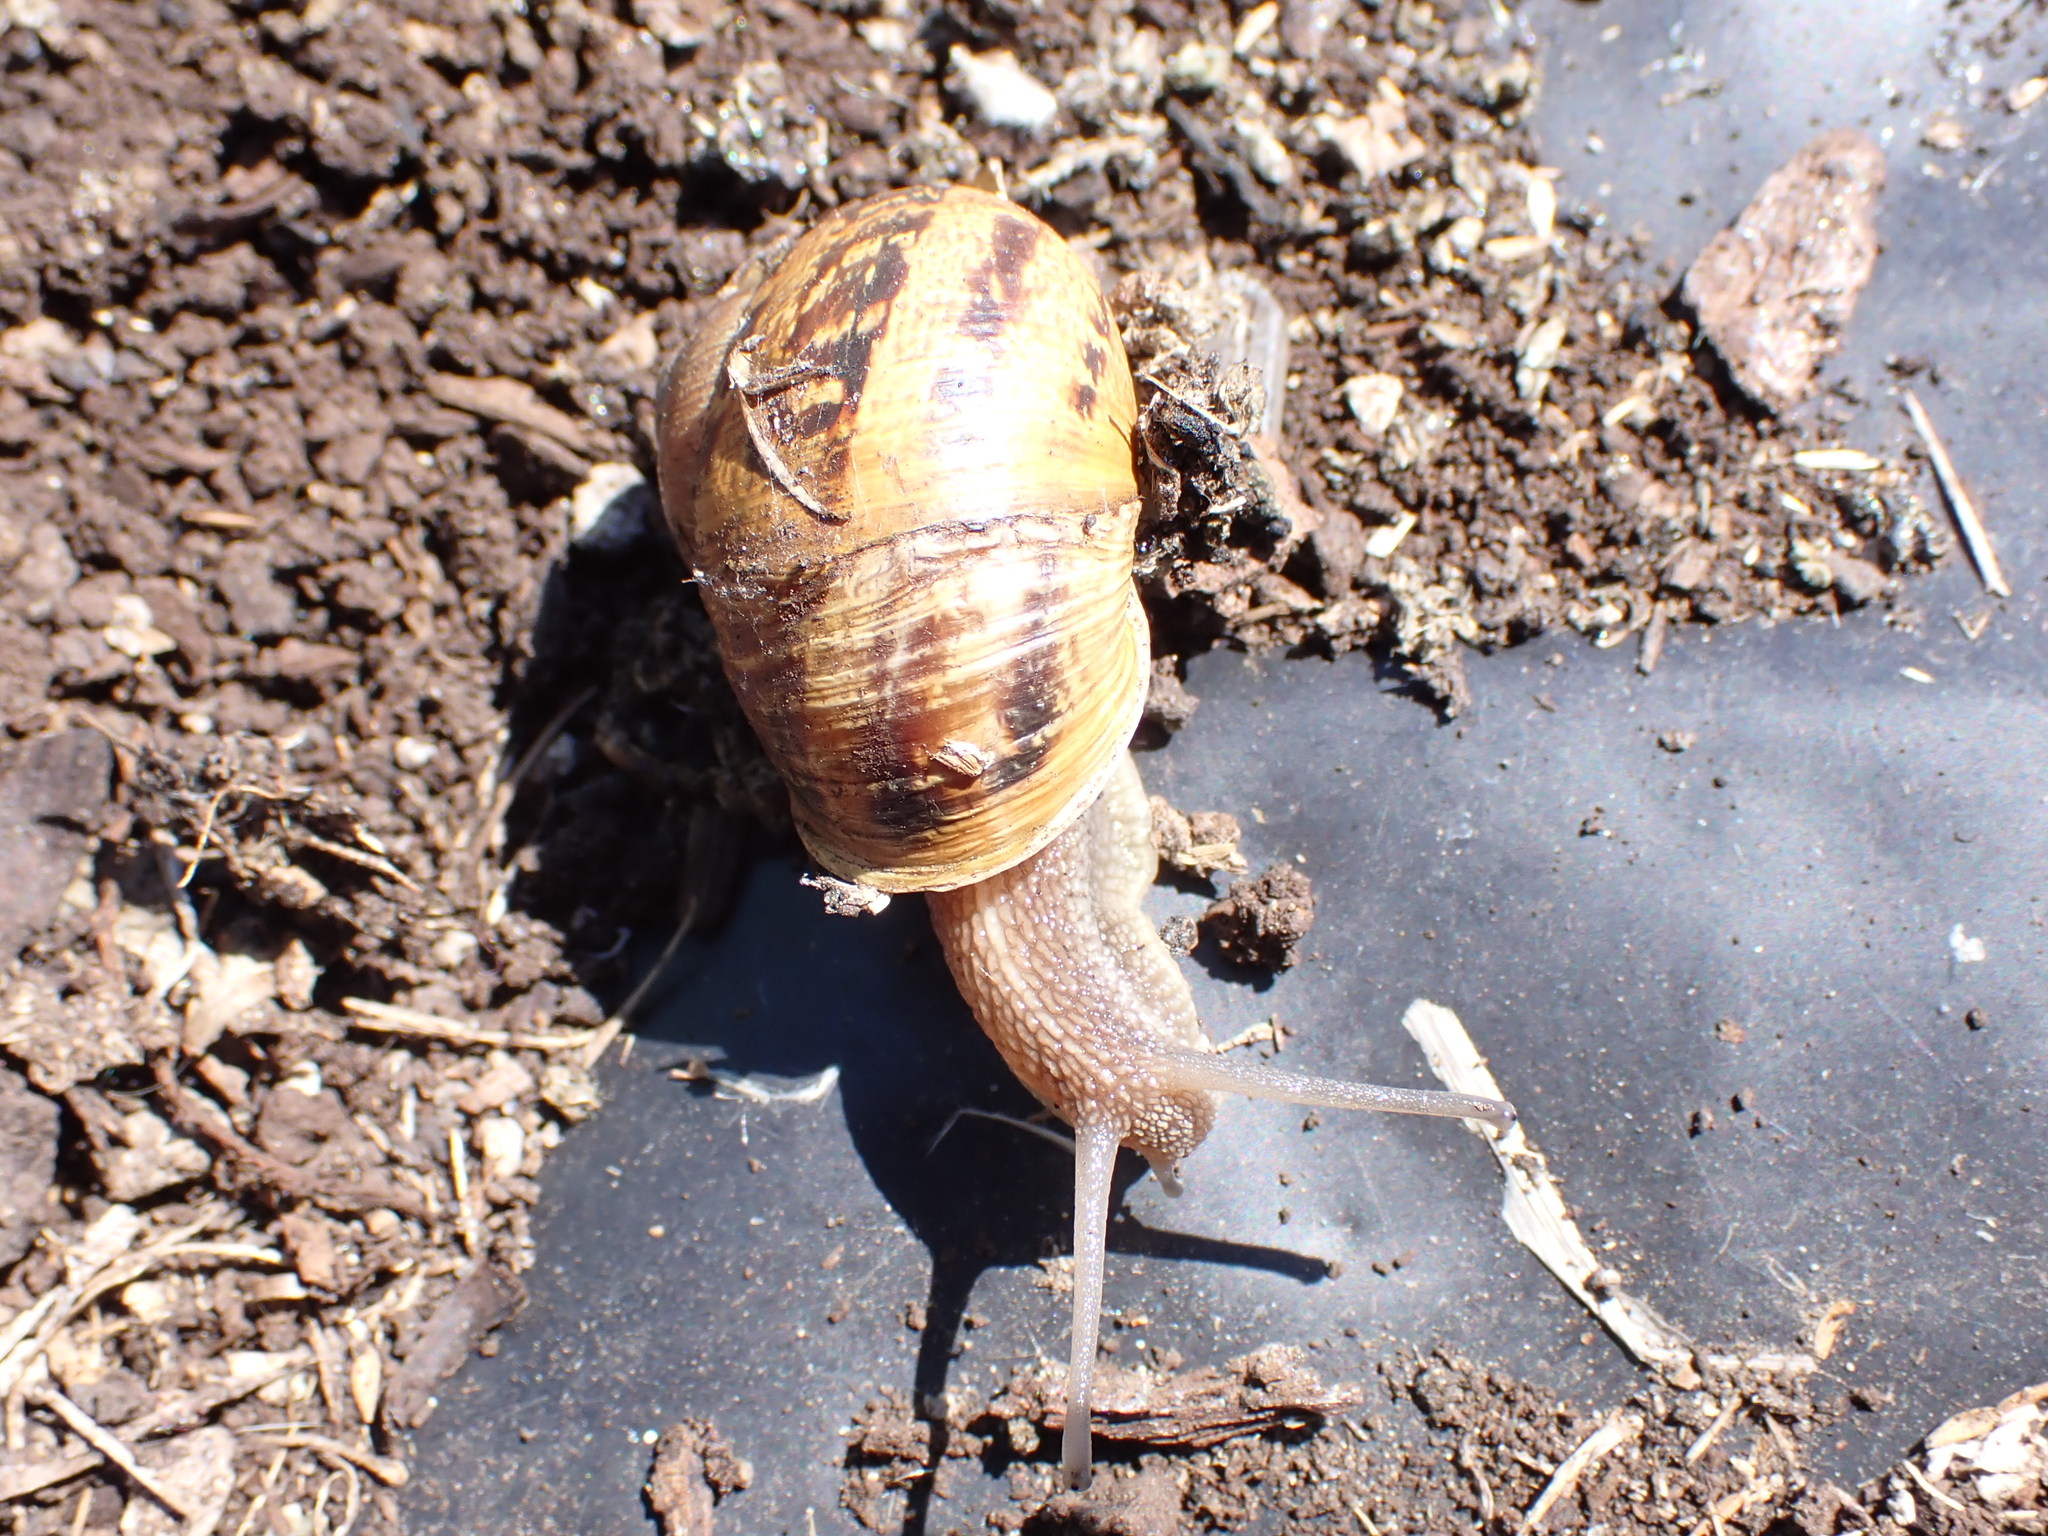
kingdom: Animalia
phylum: Mollusca
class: Gastropoda
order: Stylommatophora
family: Helicidae
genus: Cornu
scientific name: Cornu aspersum
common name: Brown garden snail
